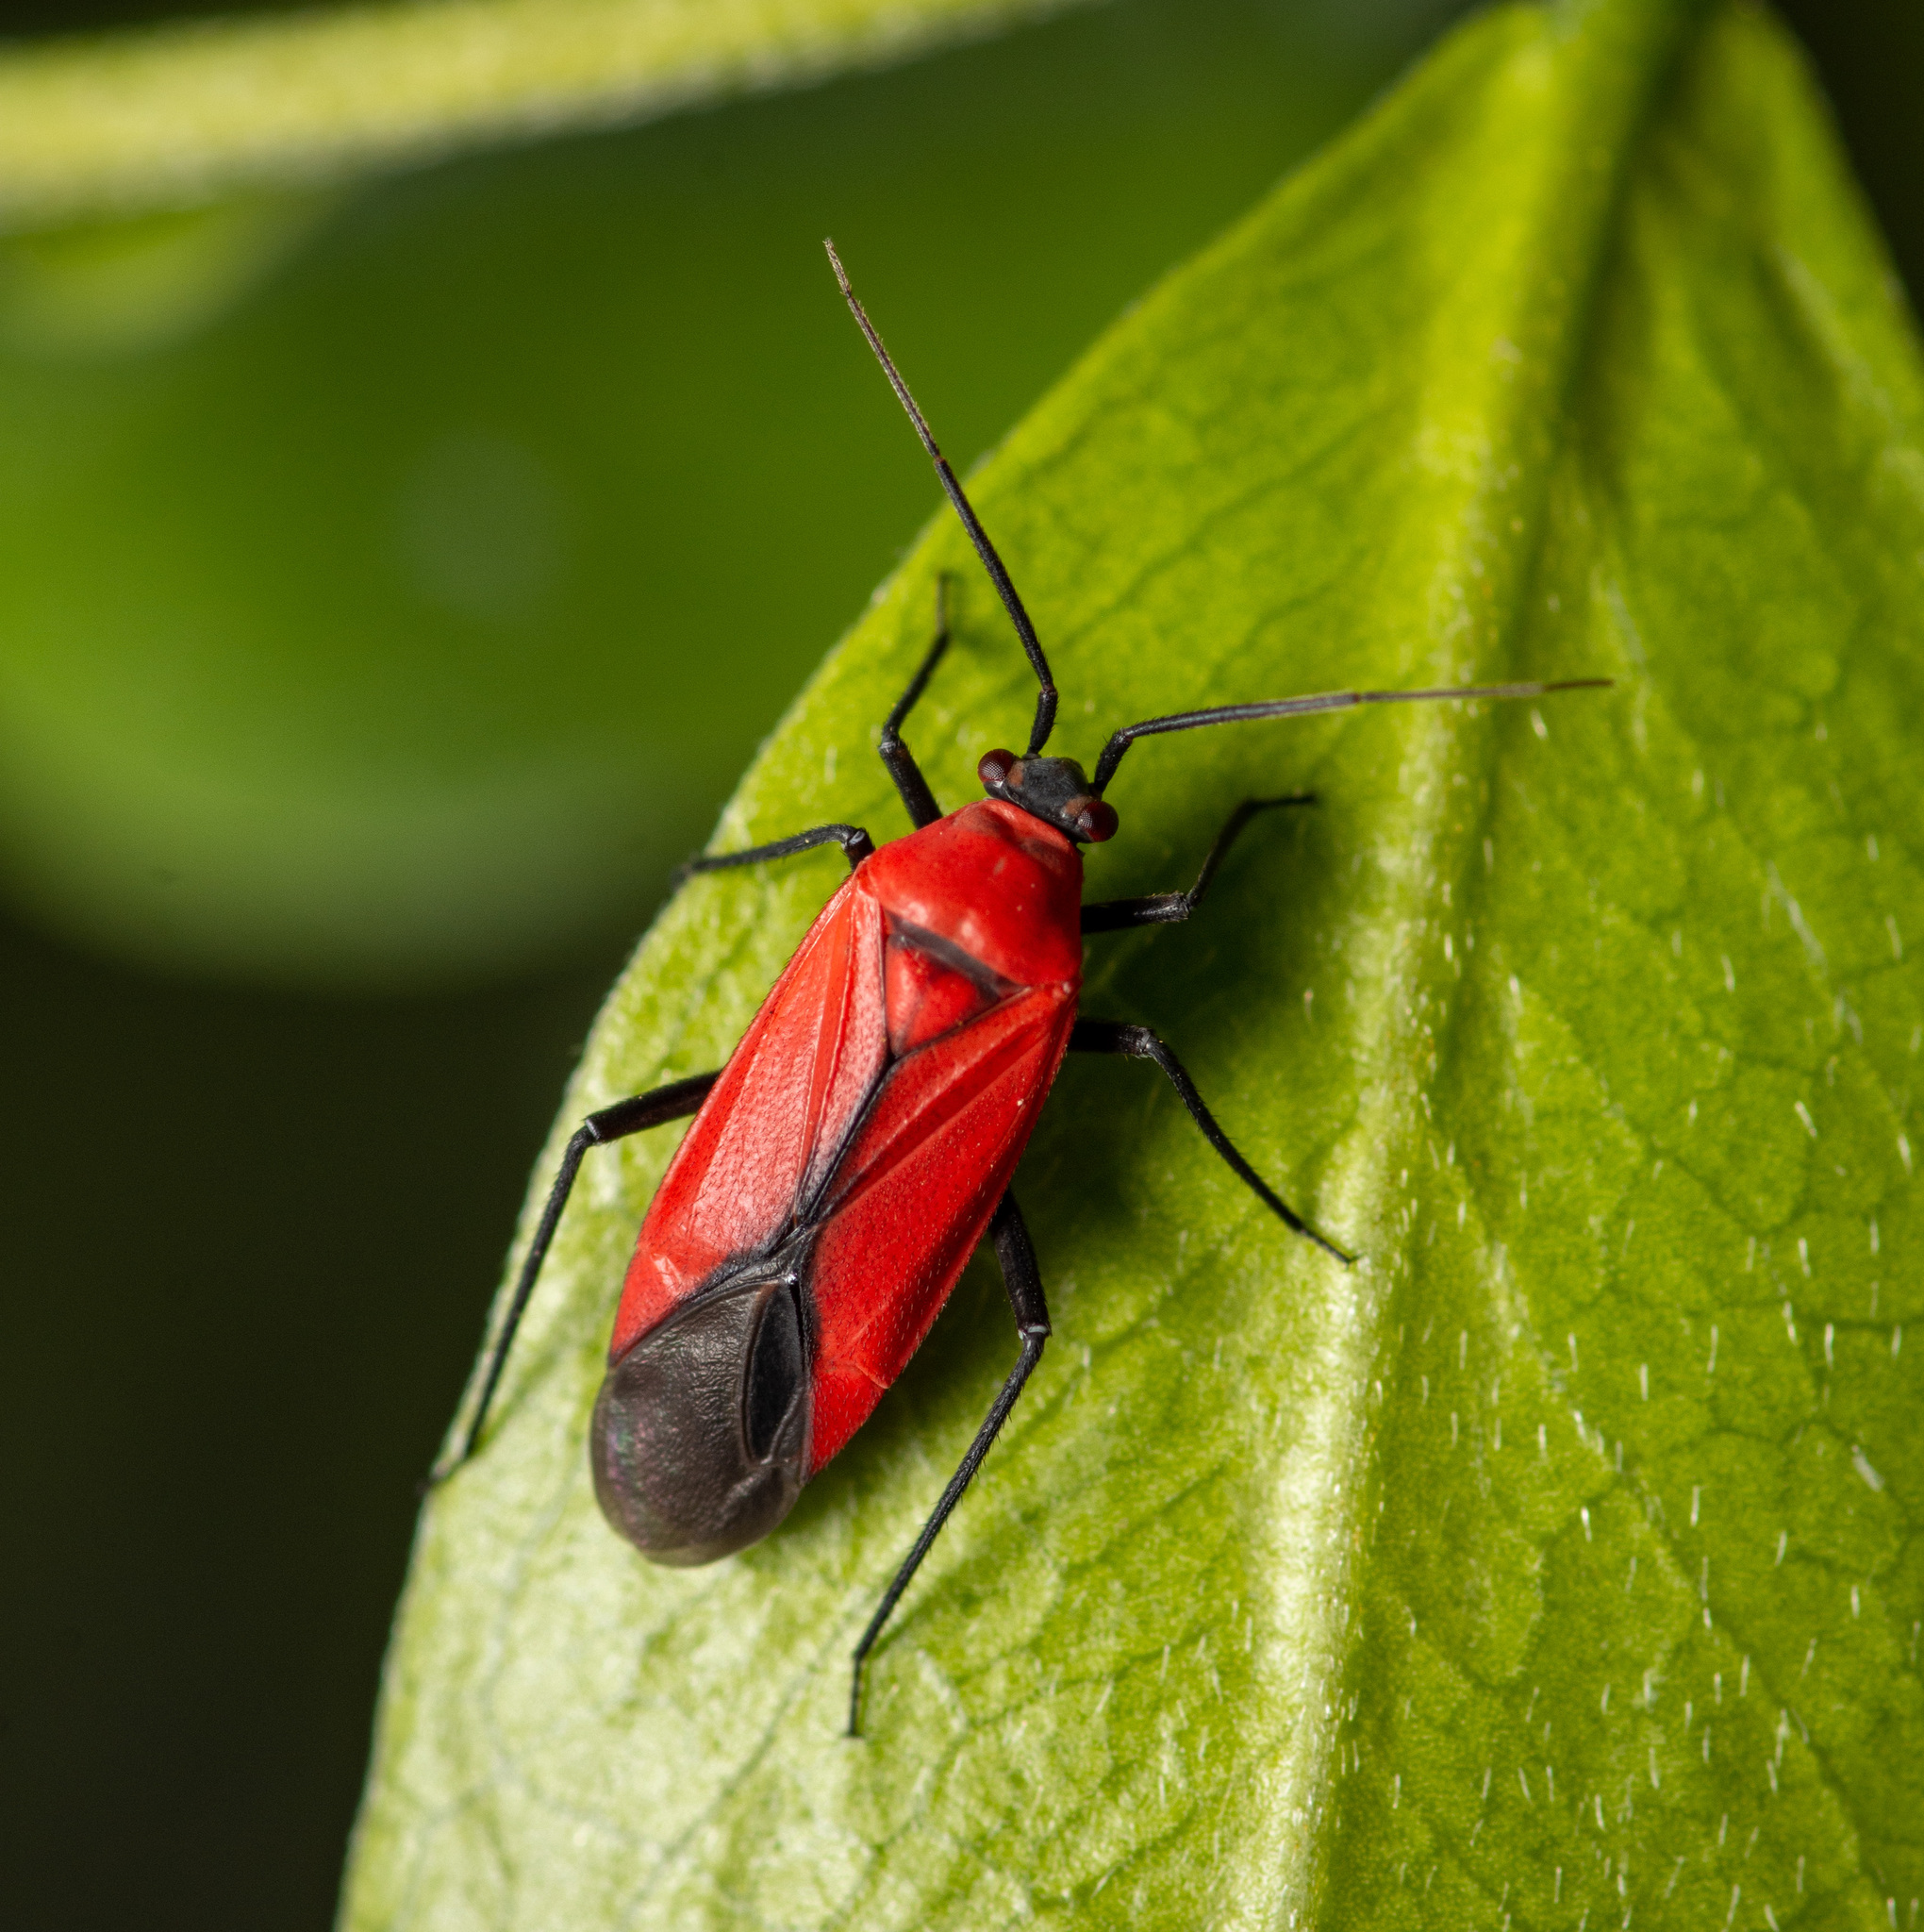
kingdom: Animalia
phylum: Arthropoda
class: Insecta
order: Hemiptera
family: Miridae
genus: Lopidea
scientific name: Lopidea major
